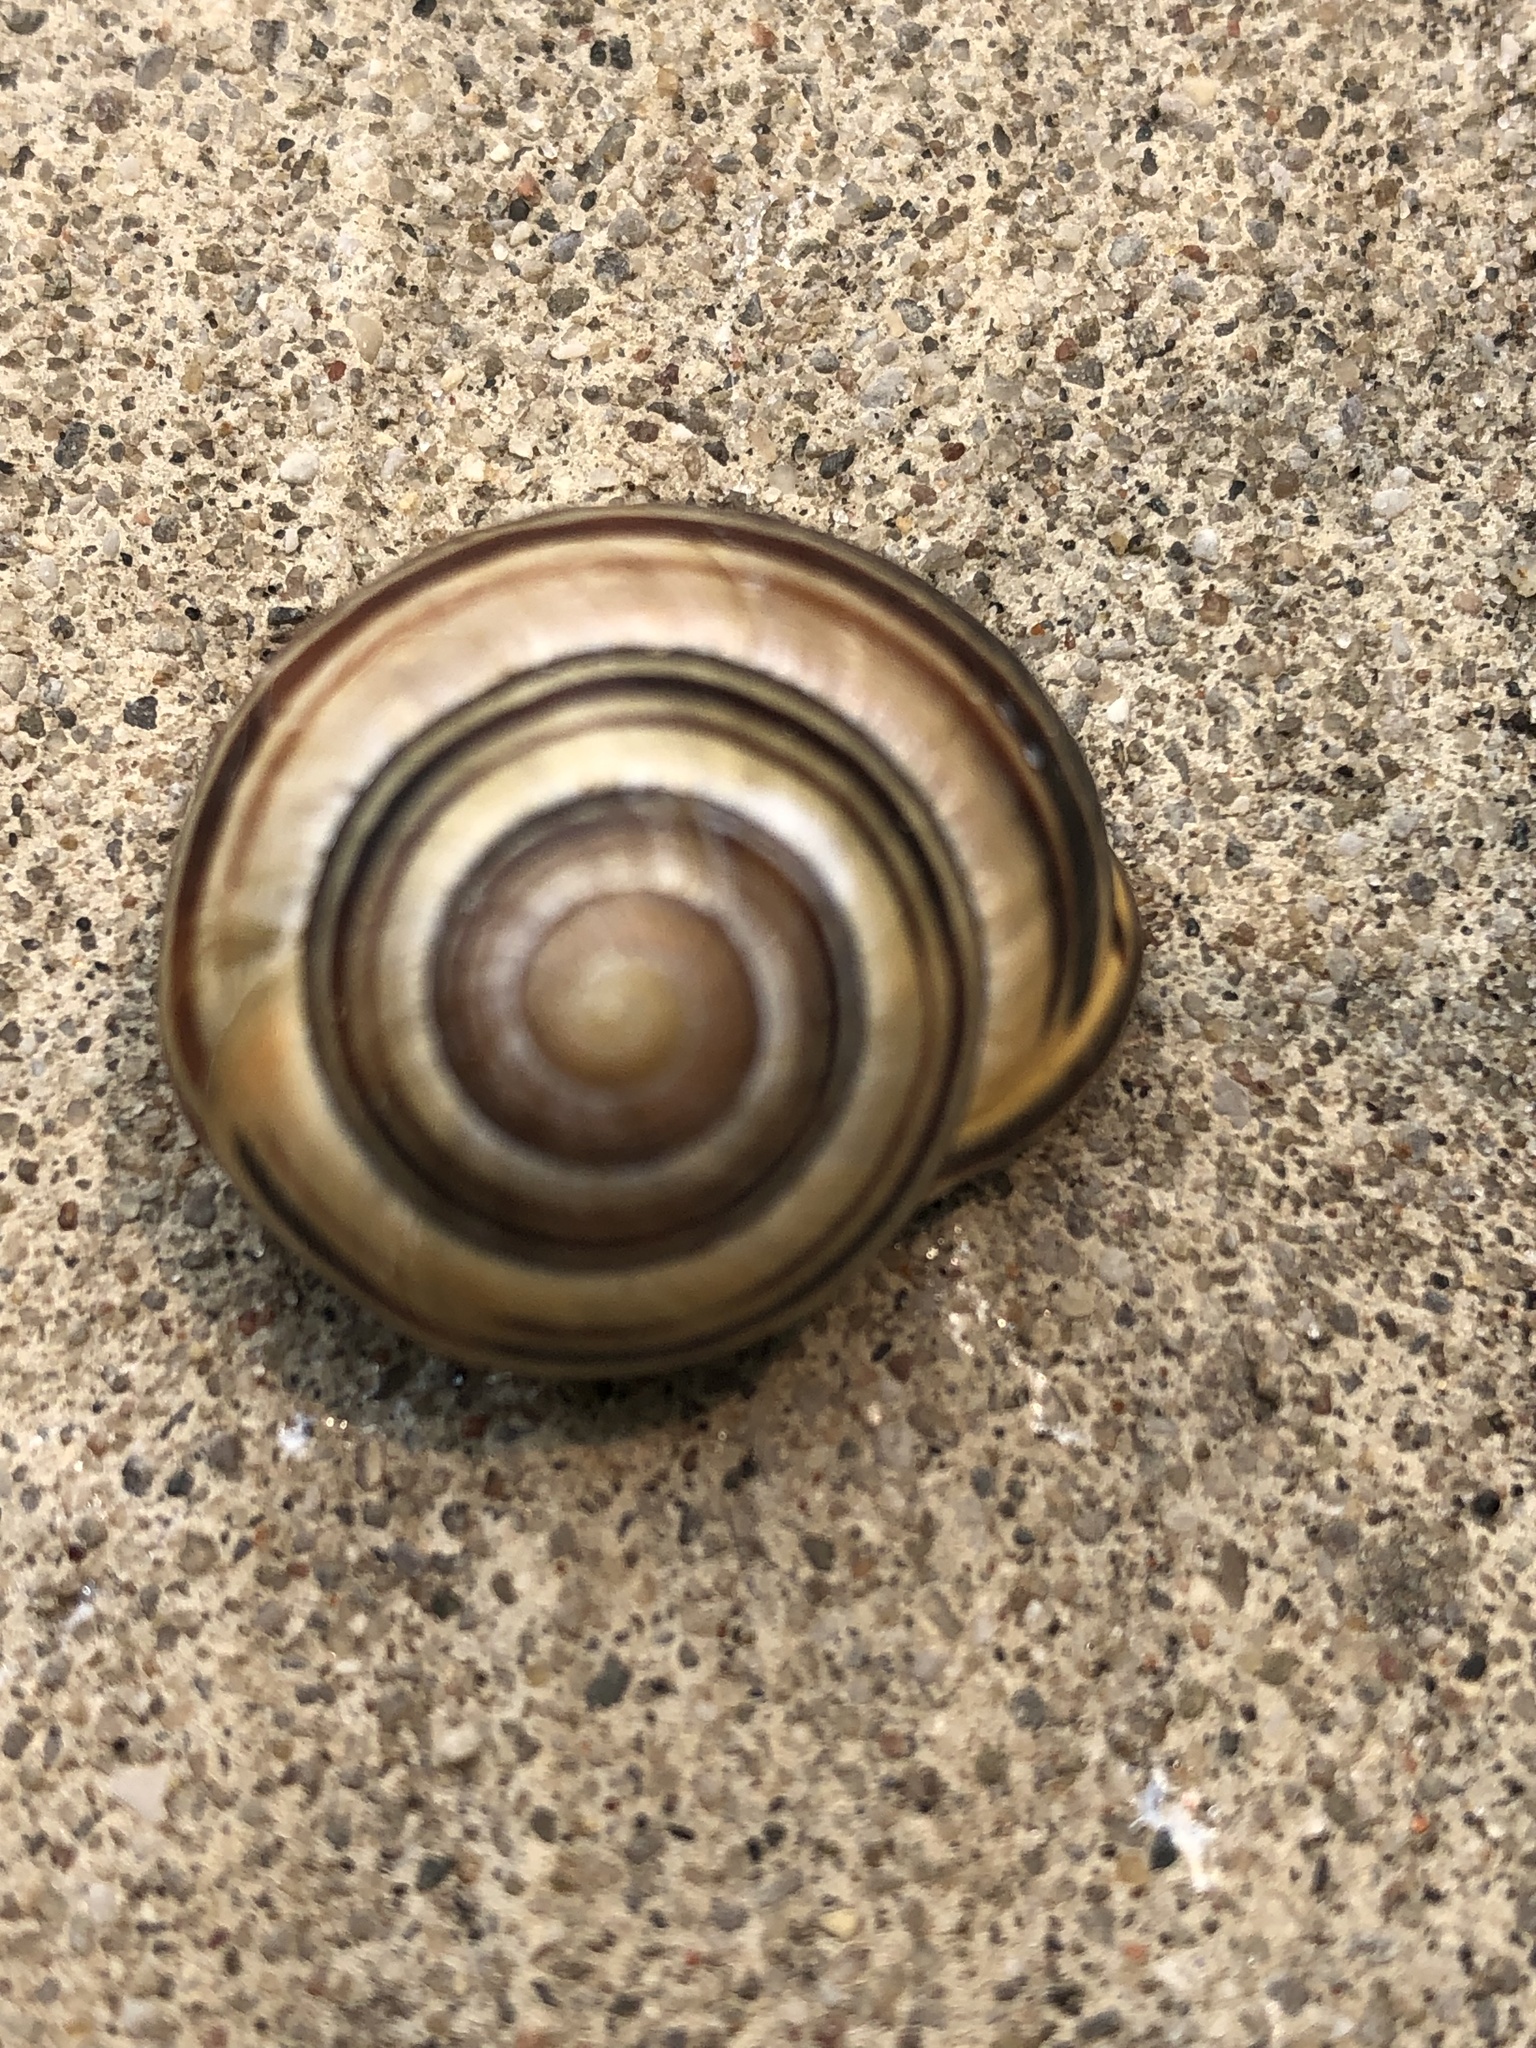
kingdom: Animalia
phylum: Mollusca
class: Gastropoda
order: Stylommatophora
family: Helicidae
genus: Cepaea
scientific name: Cepaea nemoralis
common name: Grovesnail
